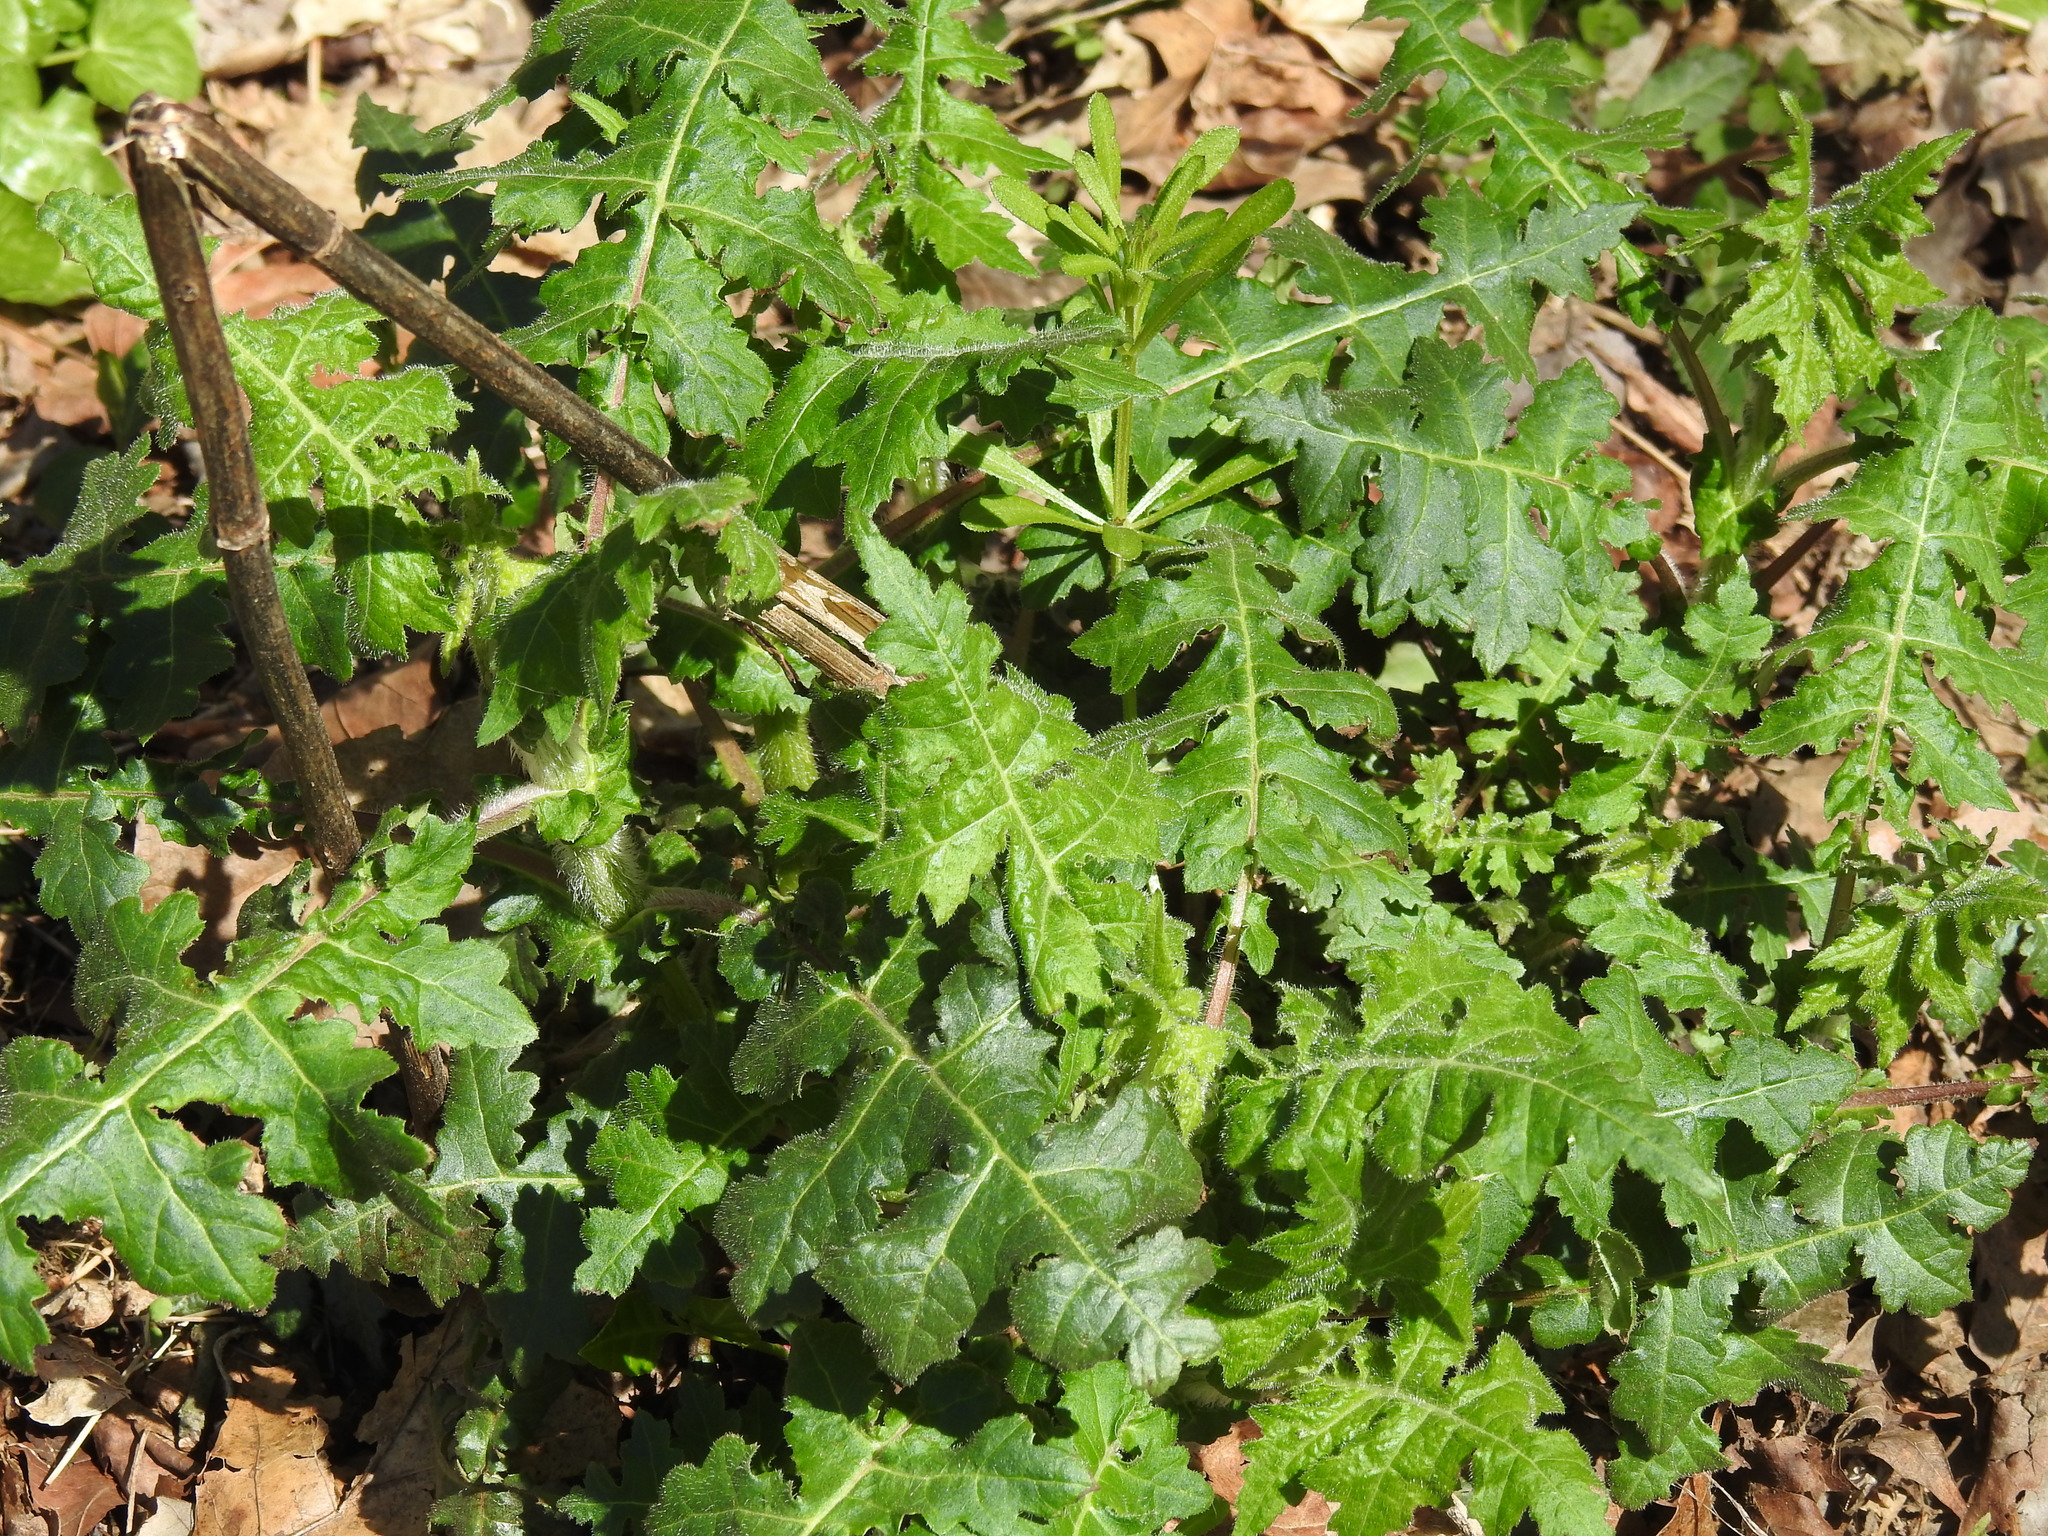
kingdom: Plantae
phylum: Tracheophyta
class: Magnoliopsida
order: Asterales
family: Asteraceae
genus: Polymnia
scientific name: Polymnia canadensis
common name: Pale-flowered leafcup
